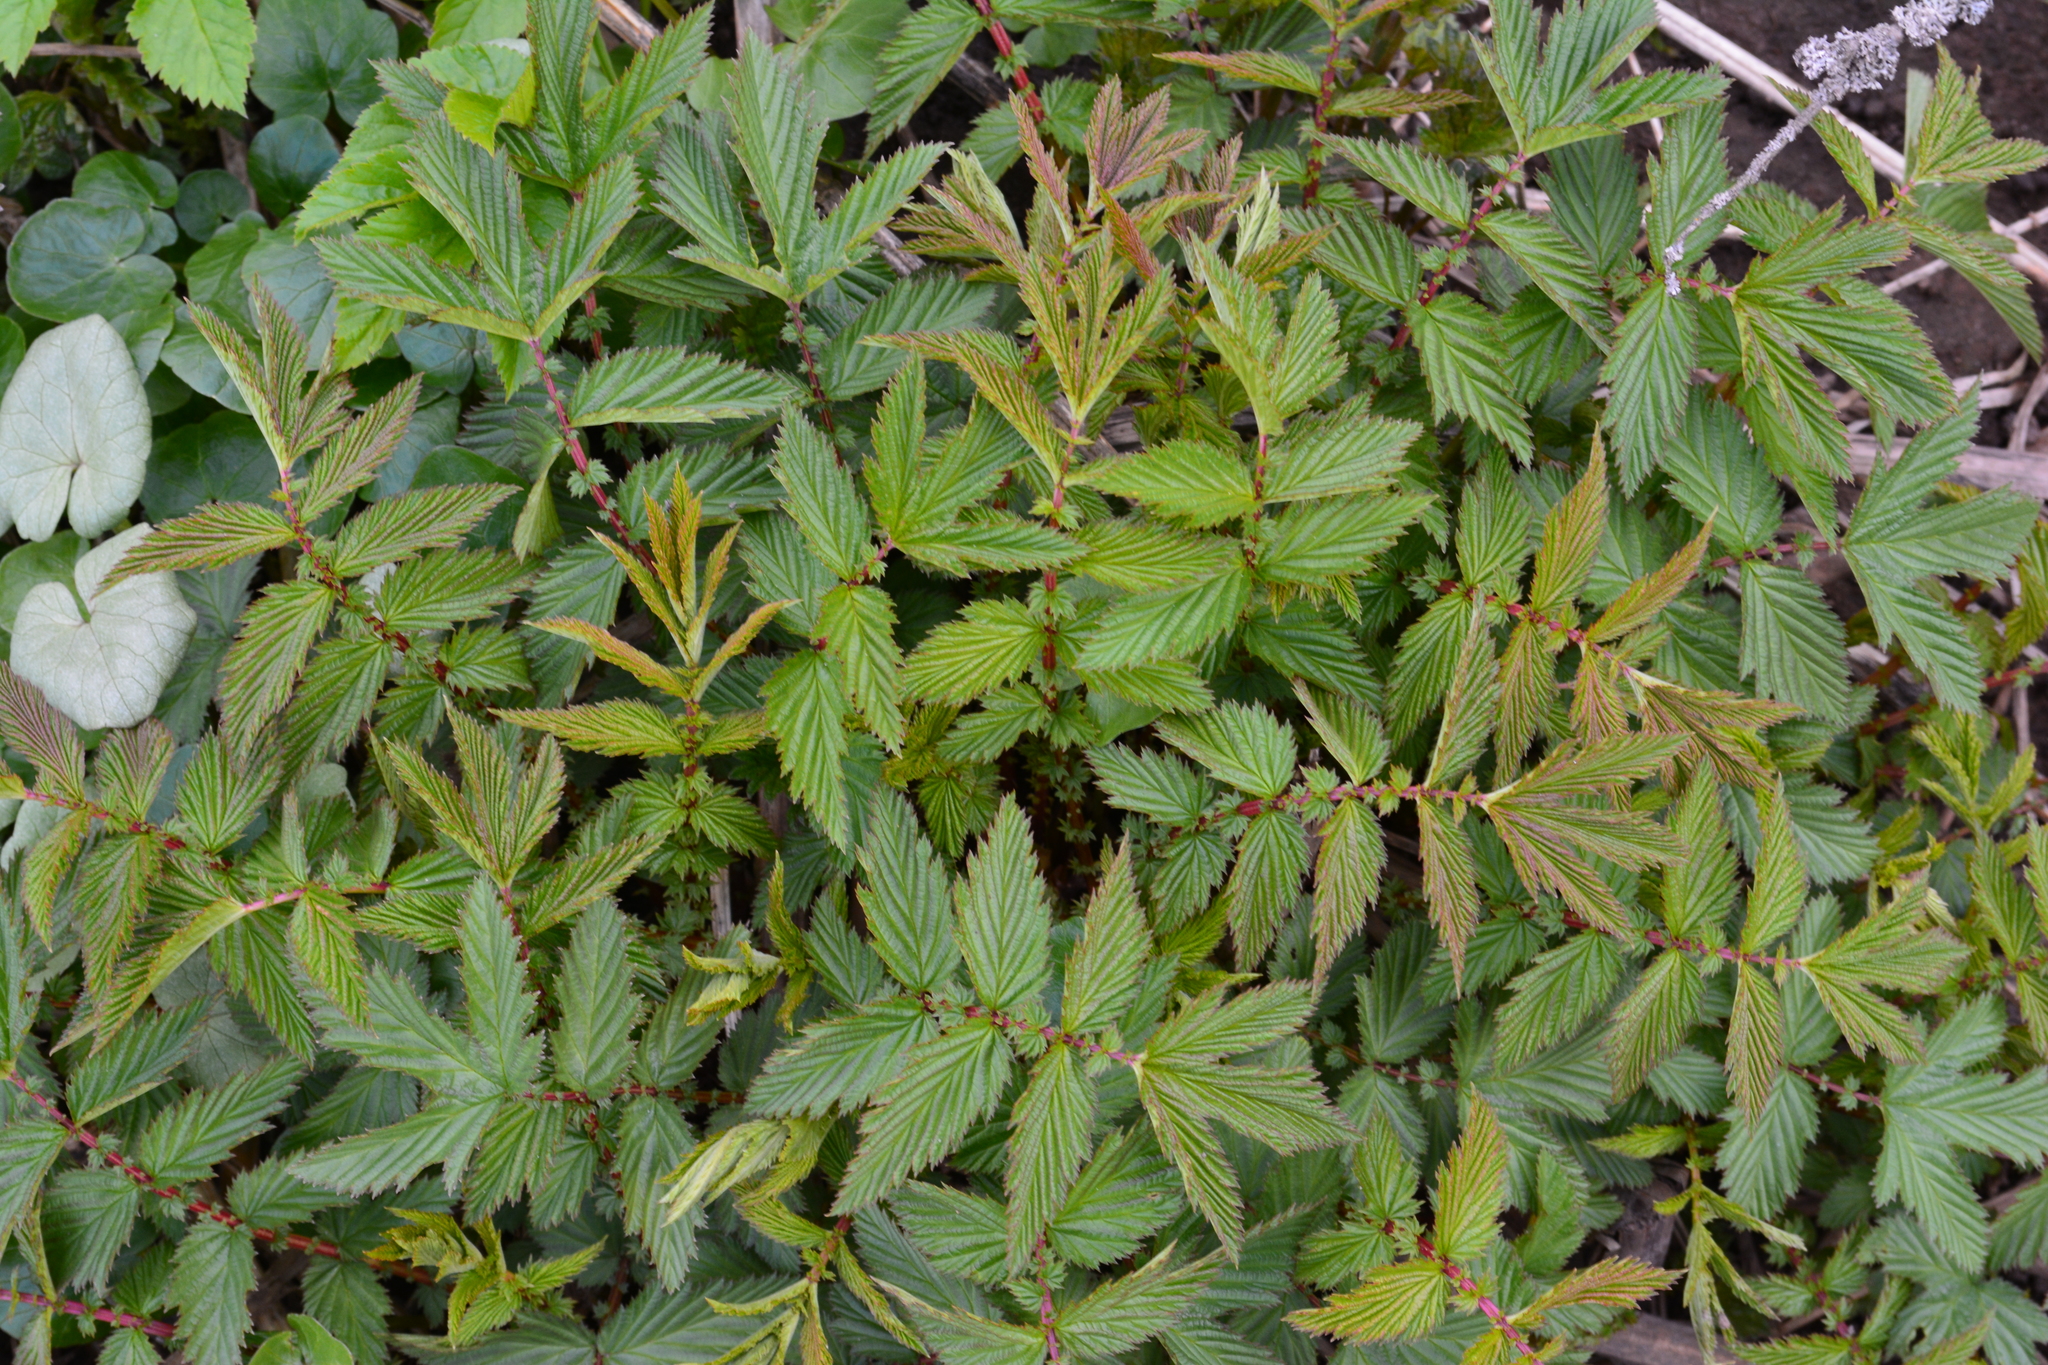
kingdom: Plantae
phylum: Tracheophyta
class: Magnoliopsida
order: Rosales
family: Rosaceae
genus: Filipendula
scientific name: Filipendula ulmaria
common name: Meadowsweet
